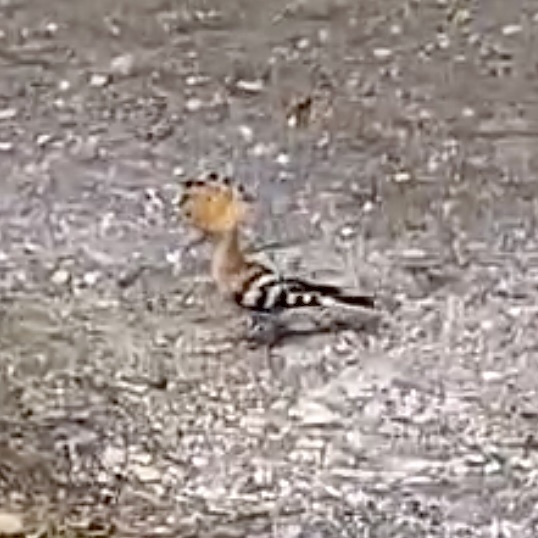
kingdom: Animalia
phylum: Chordata
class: Aves
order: Bucerotiformes
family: Upupidae
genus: Upupa
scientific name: Upupa epops
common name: Eurasian hoopoe
